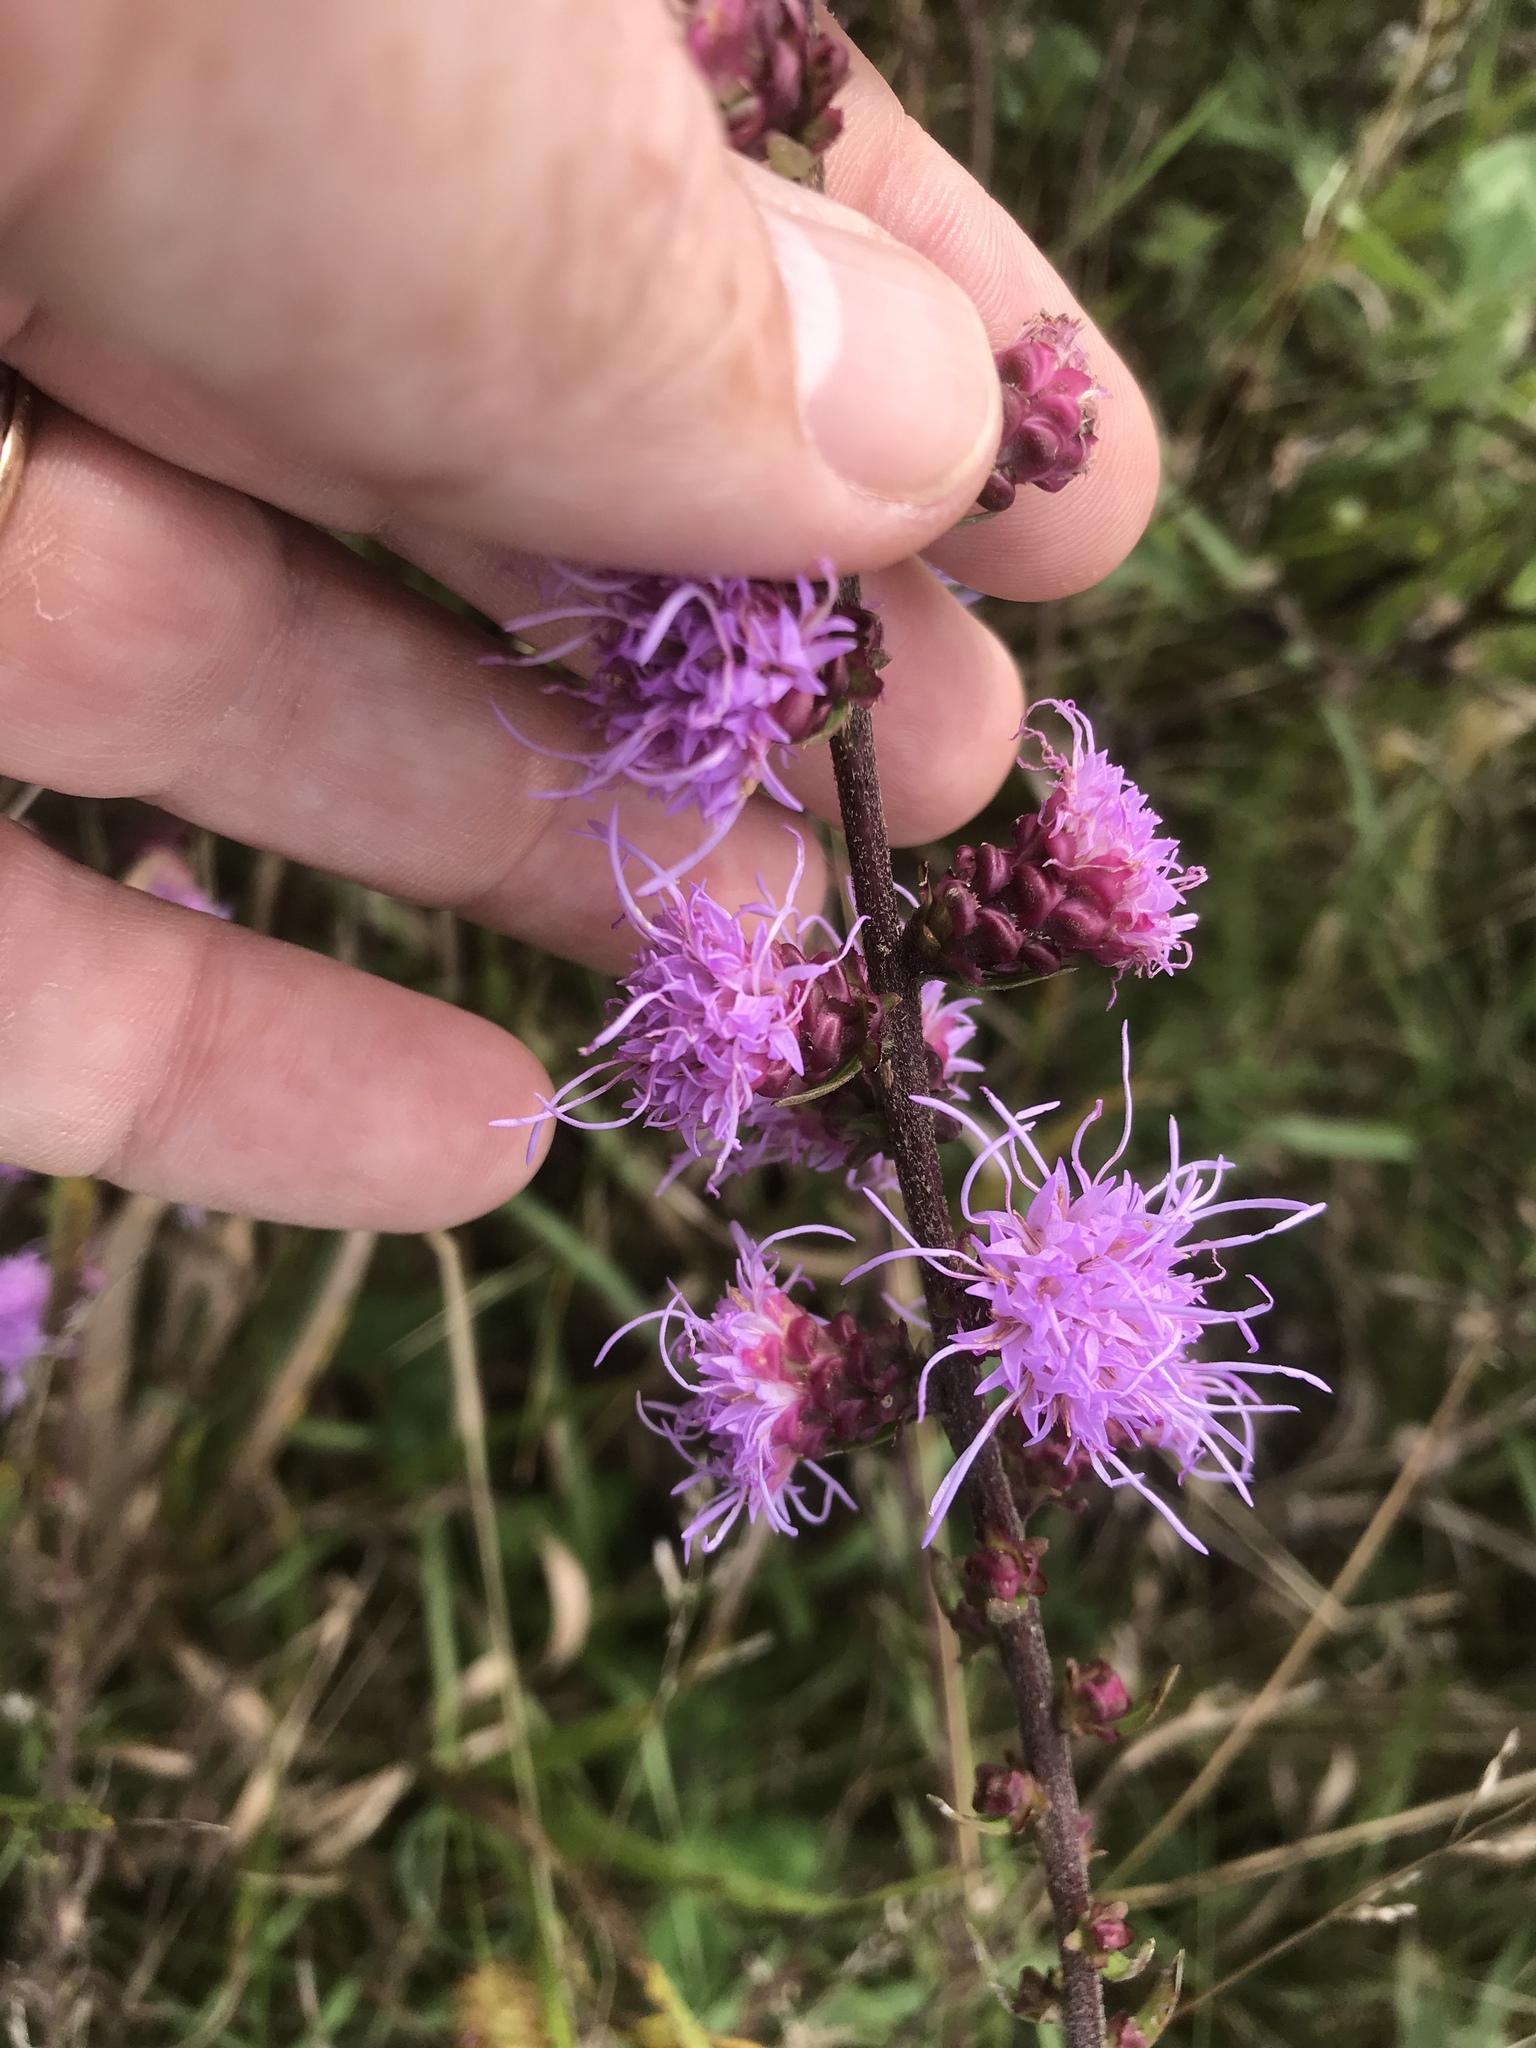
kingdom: Plantae
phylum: Tracheophyta
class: Magnoliopsida
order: Asterales
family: Asteraceae
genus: Liatris
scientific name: Liatris aspera
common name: Lacerate blazing-star
